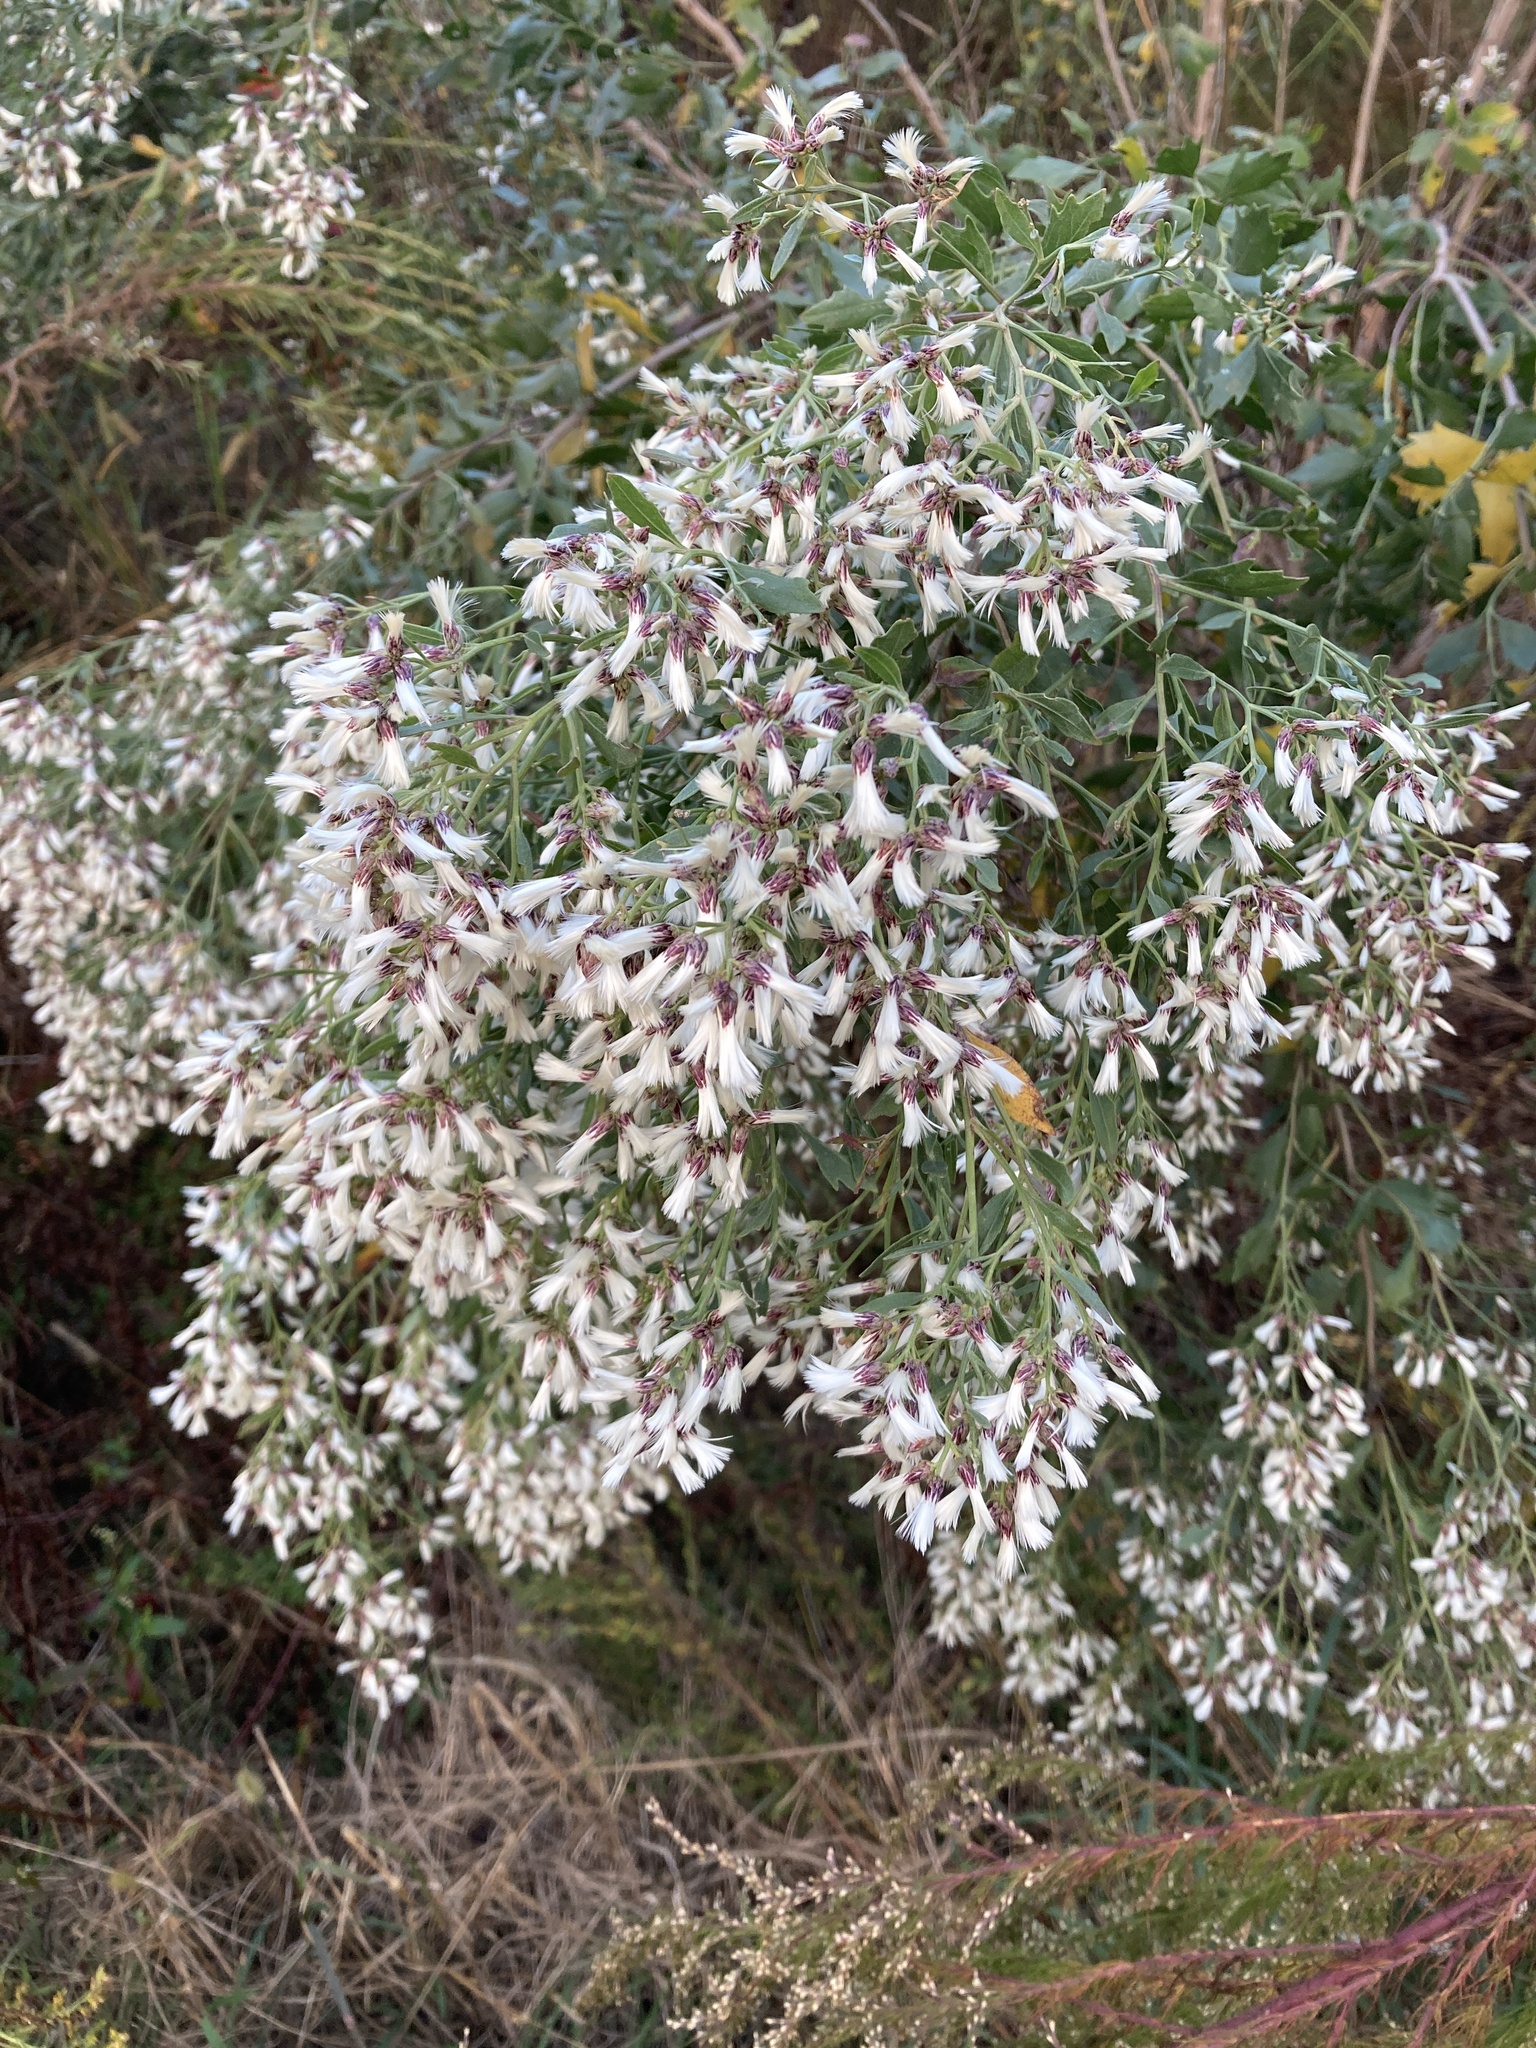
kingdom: Plantae
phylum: Tracheophyta
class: Magnoliopsida
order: Asterales
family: Asteraceae
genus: Baccharis
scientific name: Baccharis halimifolia
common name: Eastern baccharis
